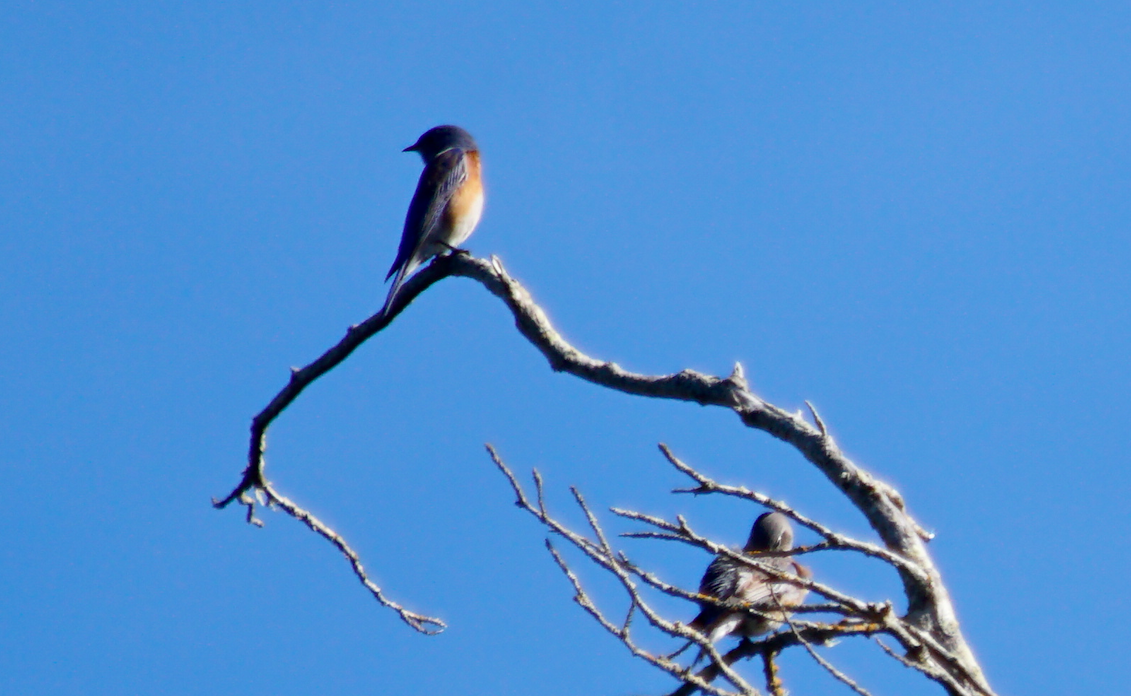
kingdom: Animalia
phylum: Chordata
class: Aves
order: Passeriformes
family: Turdidae
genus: Sialia
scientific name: Sialia mexicana
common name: Western bluebird
